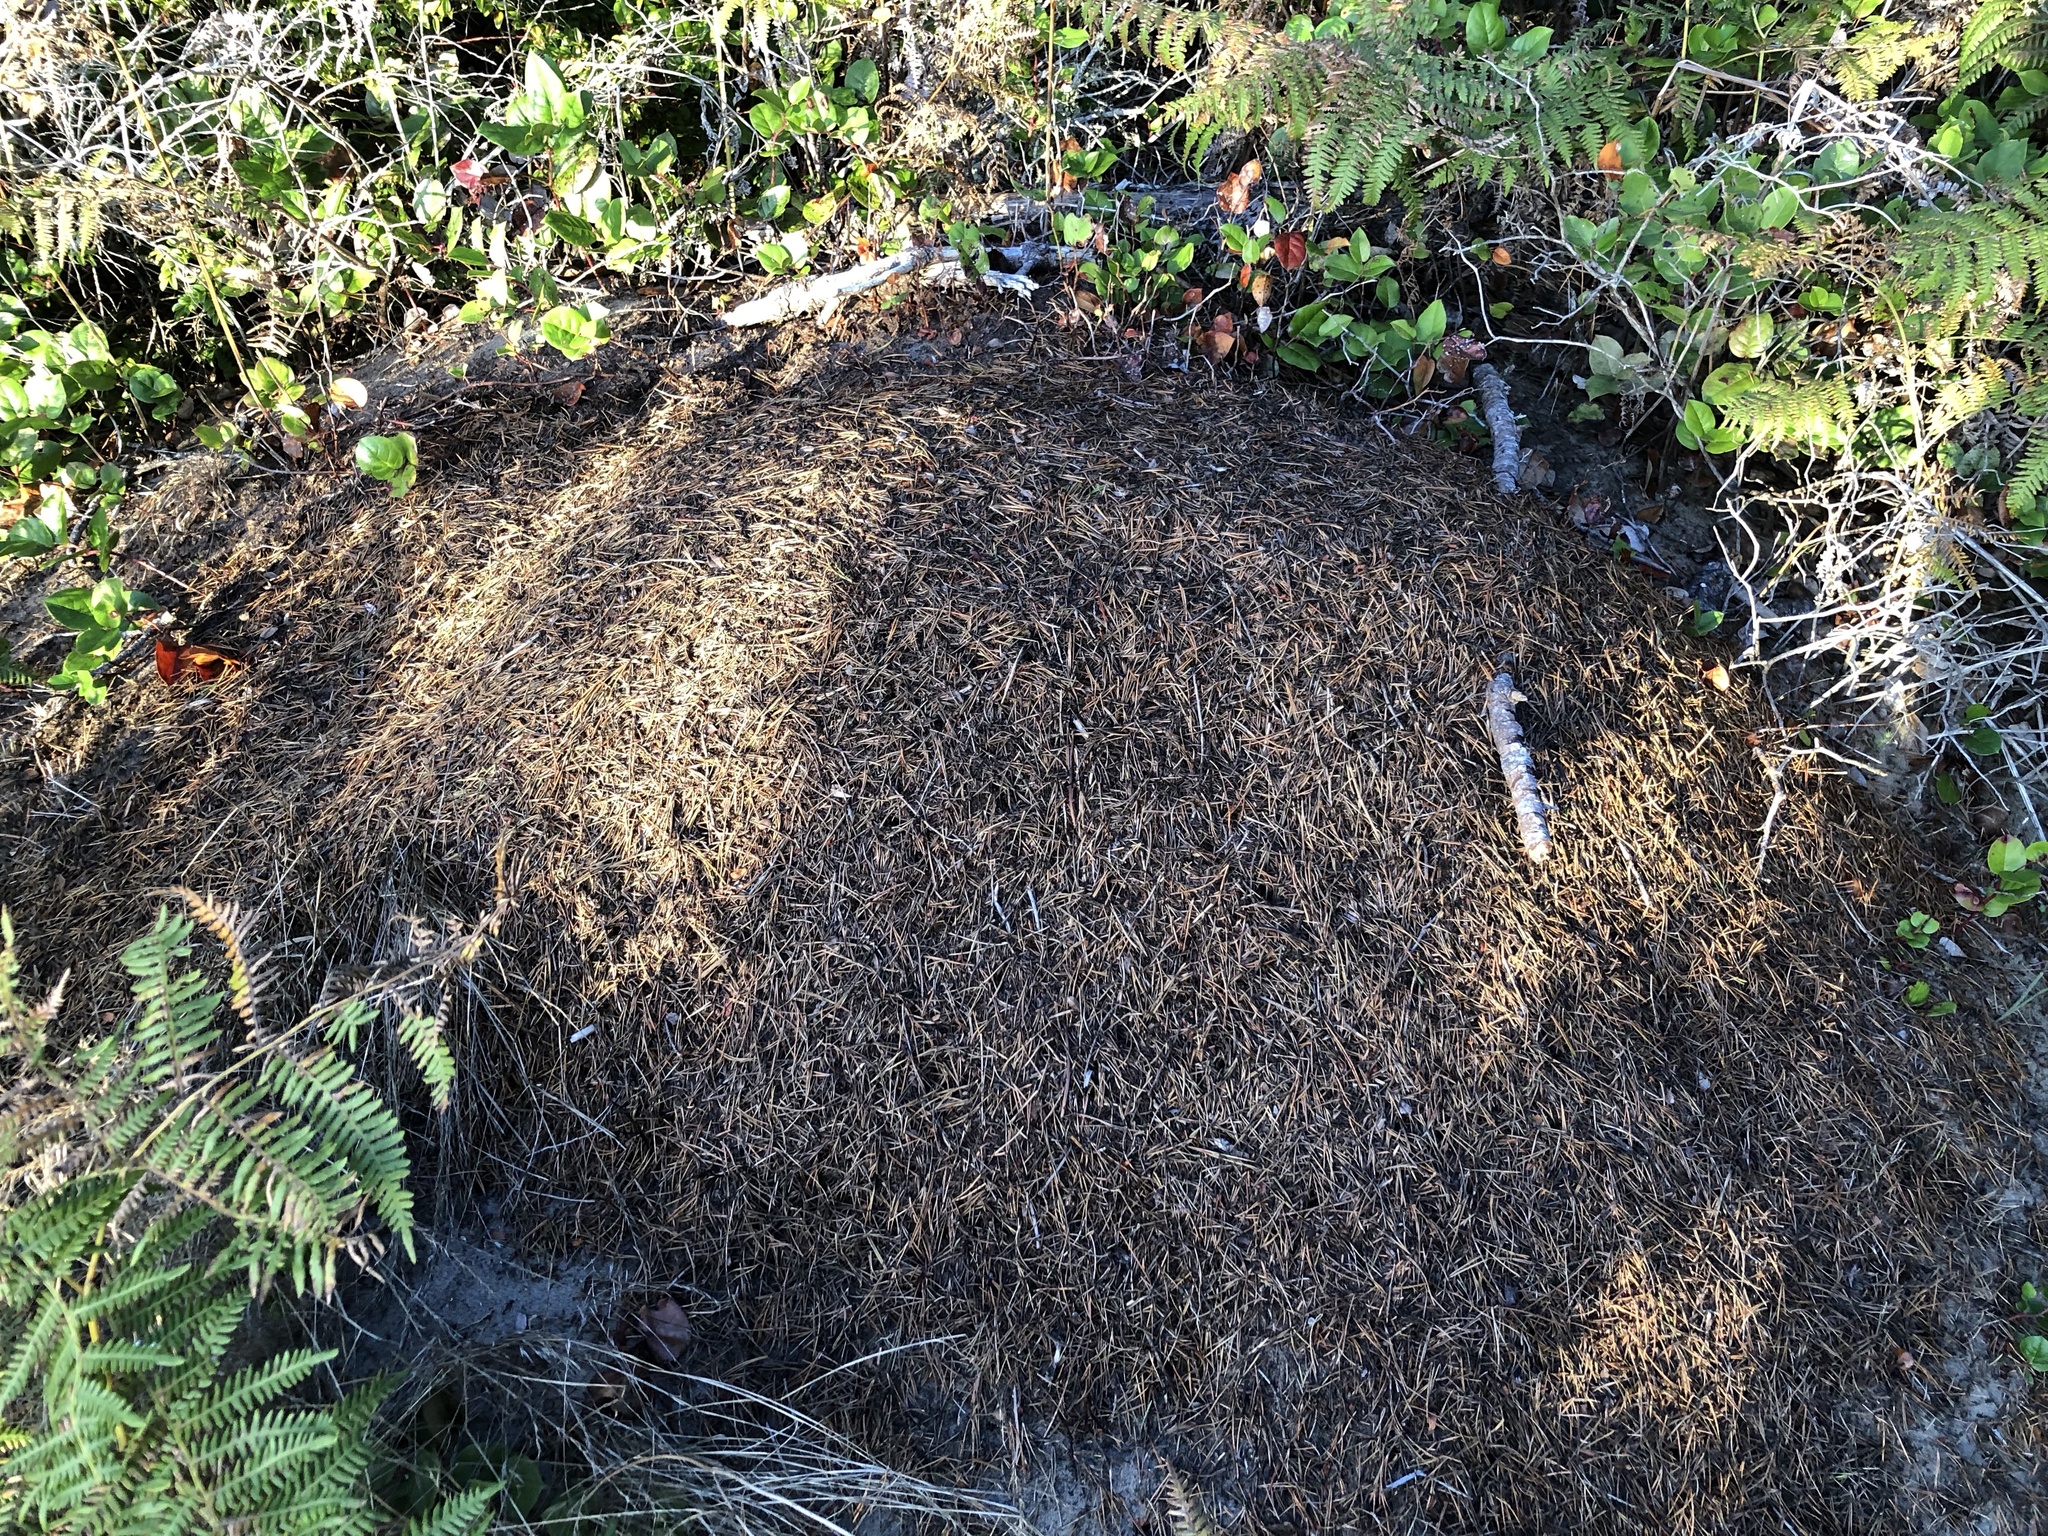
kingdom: Animalia
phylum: Arthropoda
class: Insecta
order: Hymenoptera
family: Formicidae
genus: Formica
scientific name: Formica obscuripes
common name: Western thatching ant
